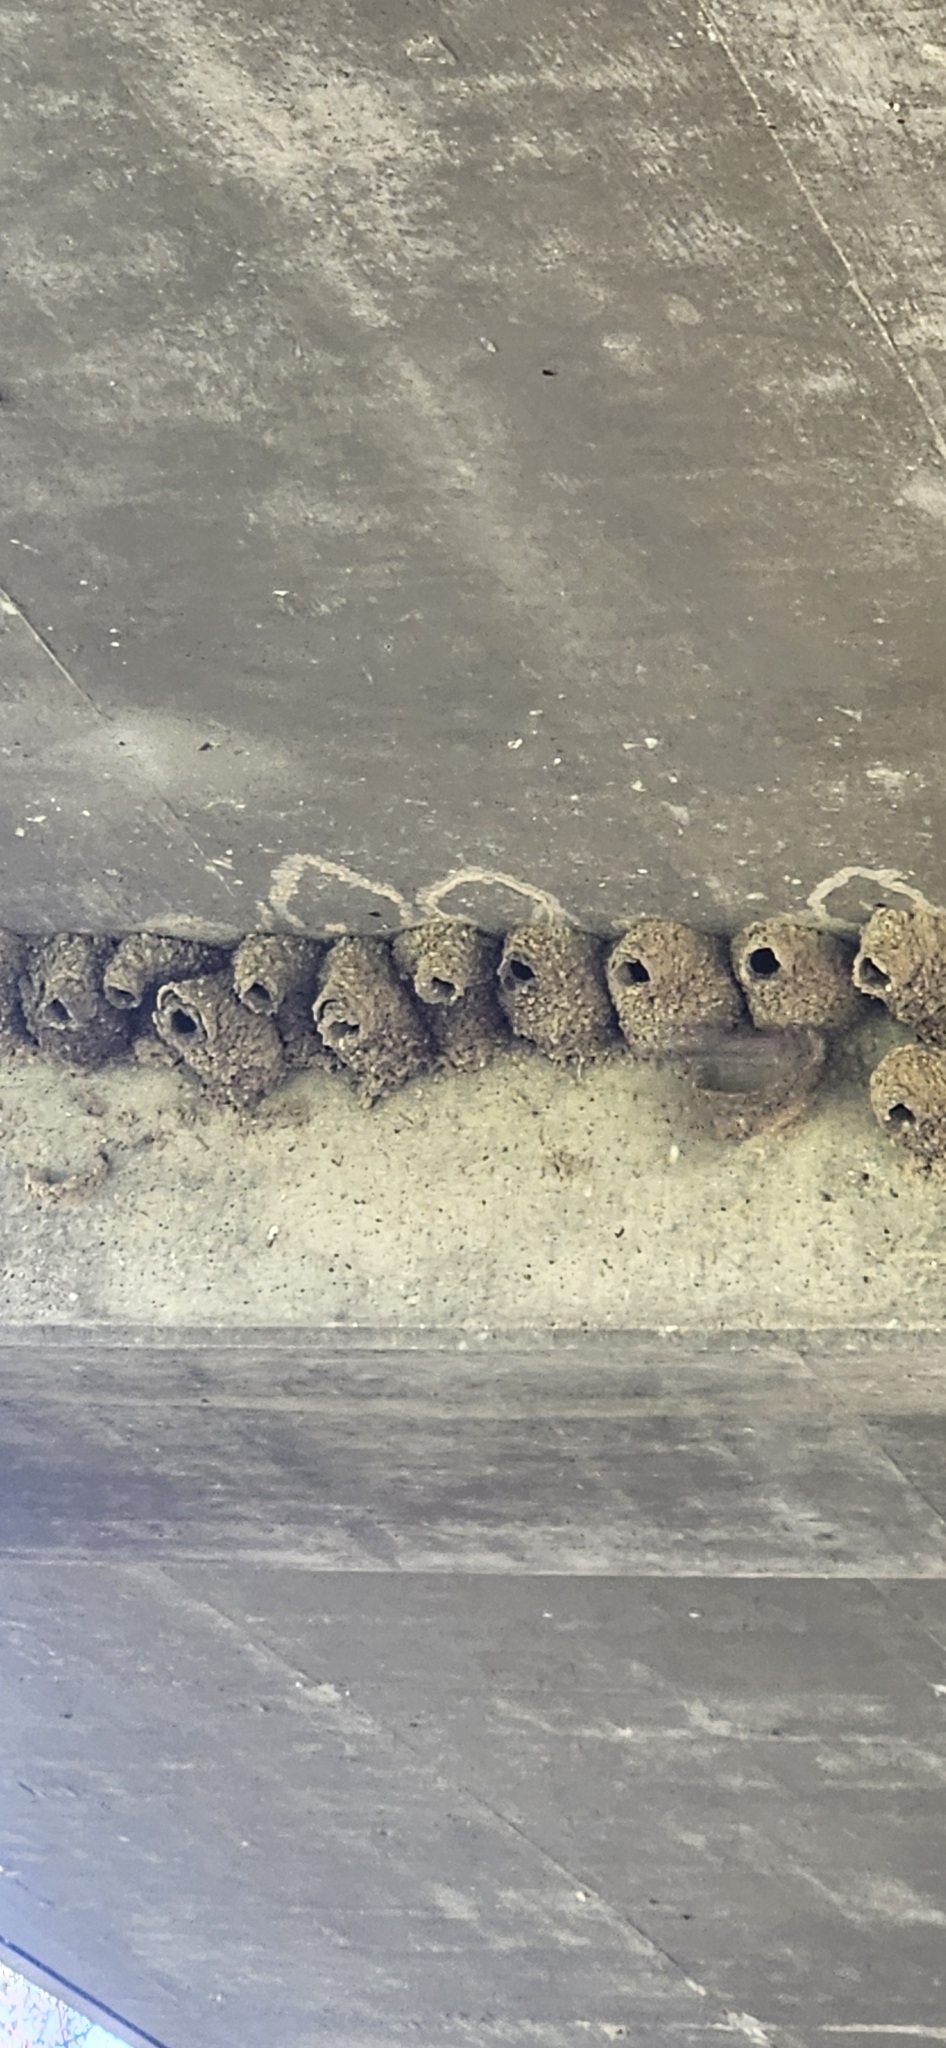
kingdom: Animalia
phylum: Chordata
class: Aves
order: Passeriformes
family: Hirundinidae
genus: Petrochelidon
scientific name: Petrochelidon pyrrhonota
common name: American cliff swallow
